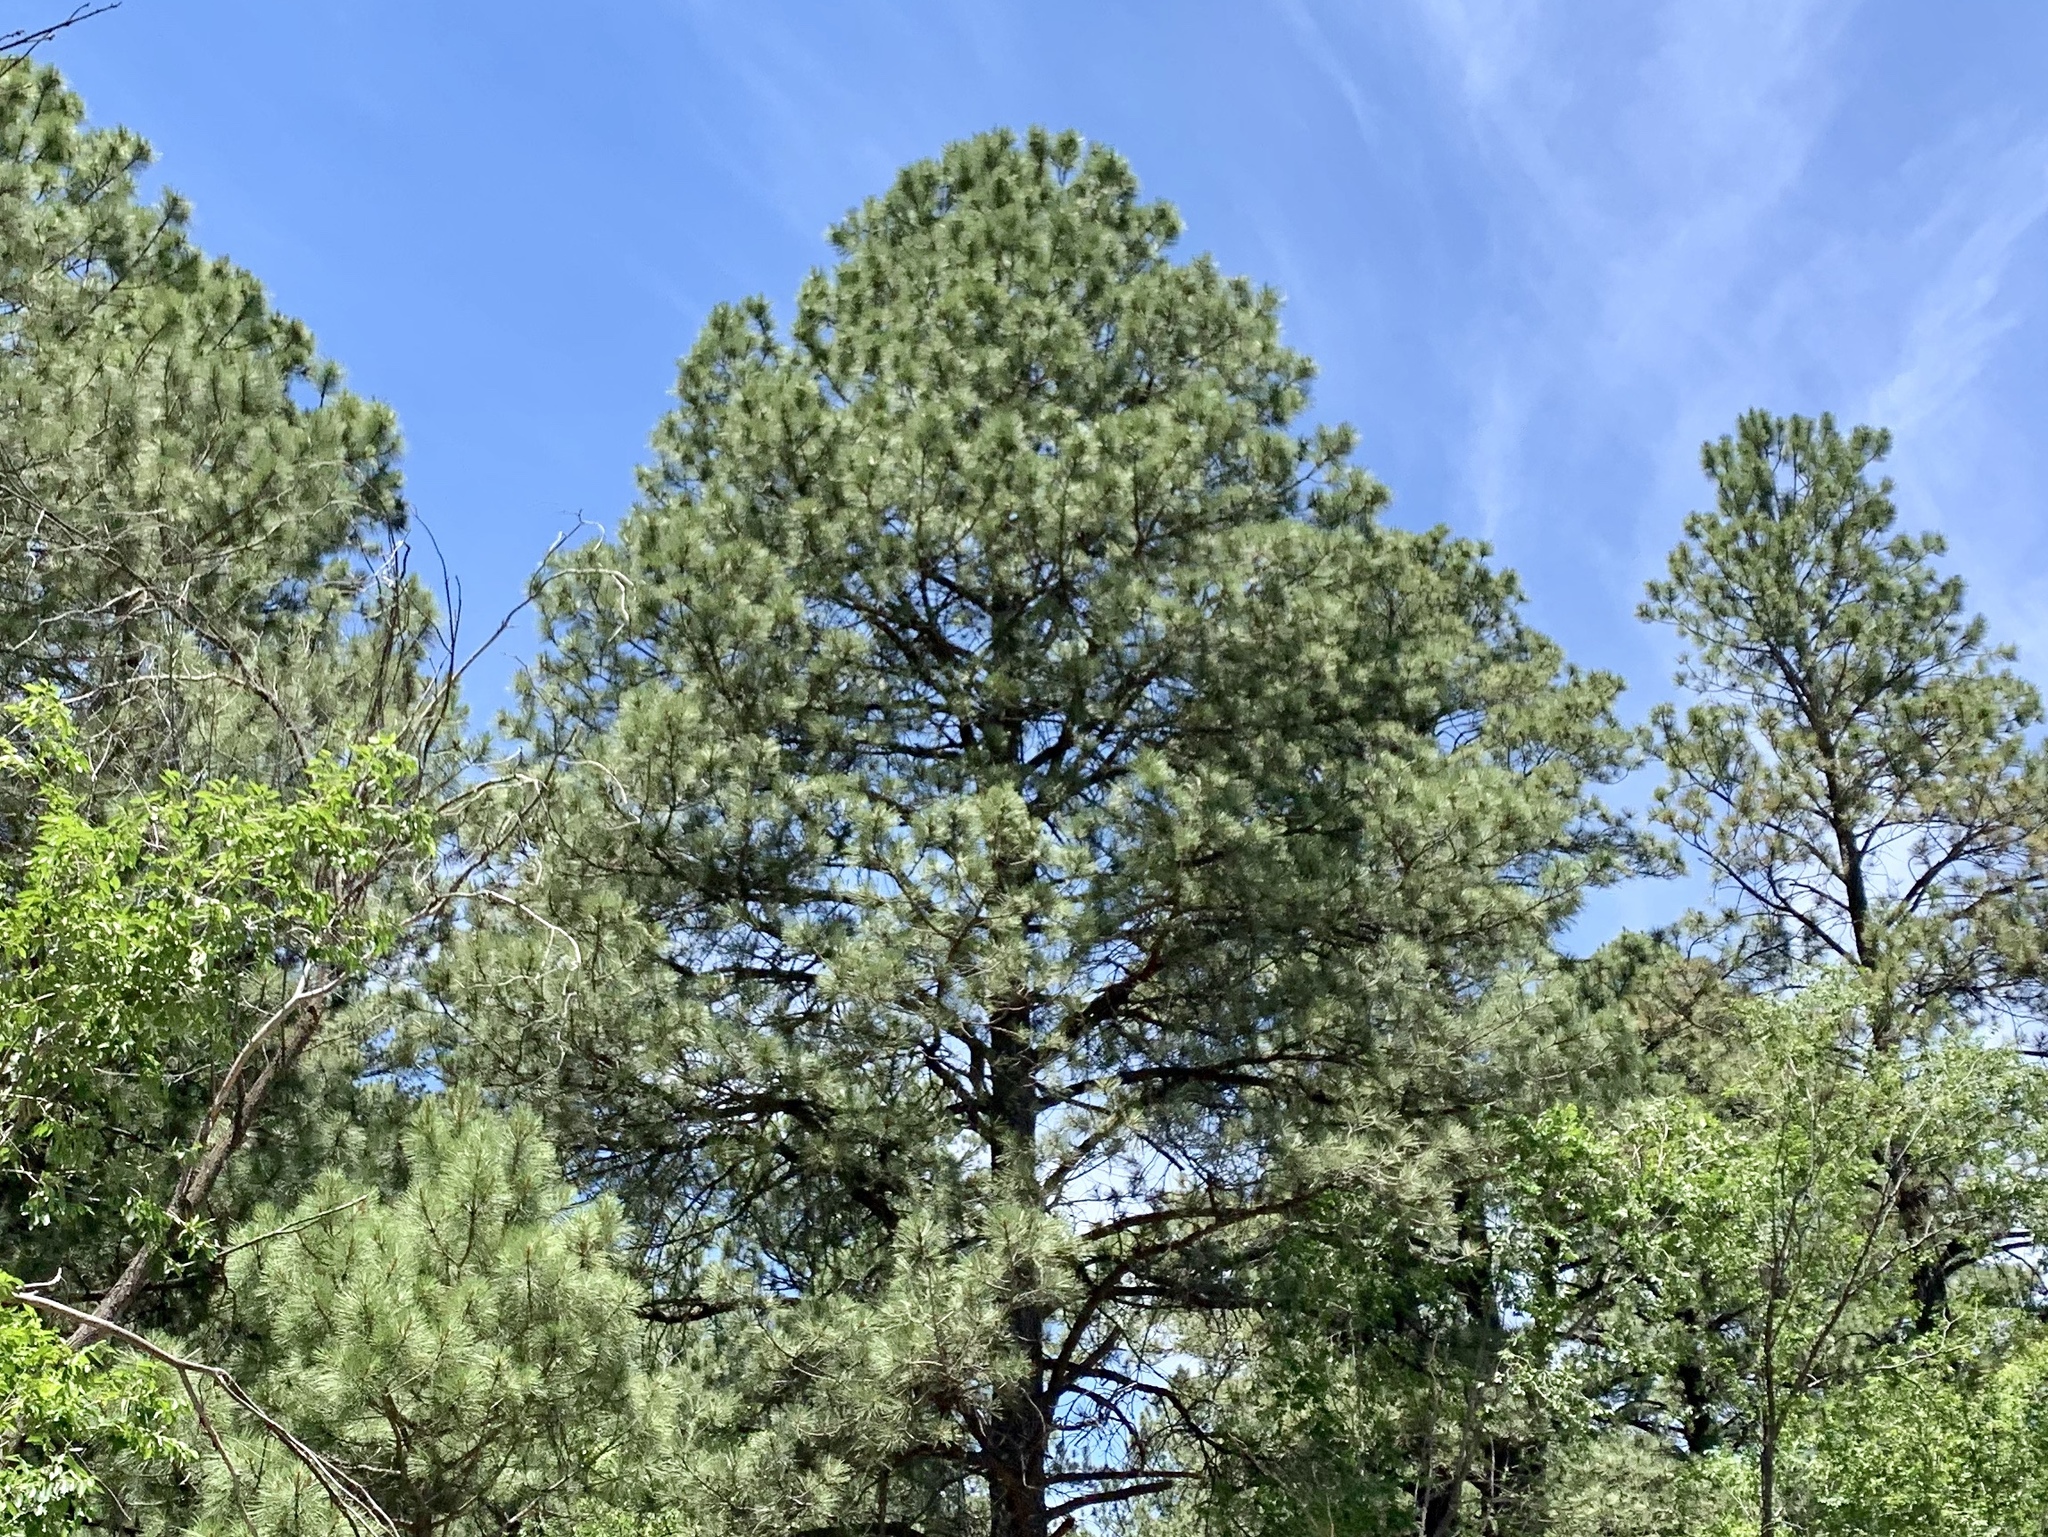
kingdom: Plantae
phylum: Tracheophyta
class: Pinopsida
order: Pinales
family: Pinaceae
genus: Pinus
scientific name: Pinus ponderosa
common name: Western yellow-pine
